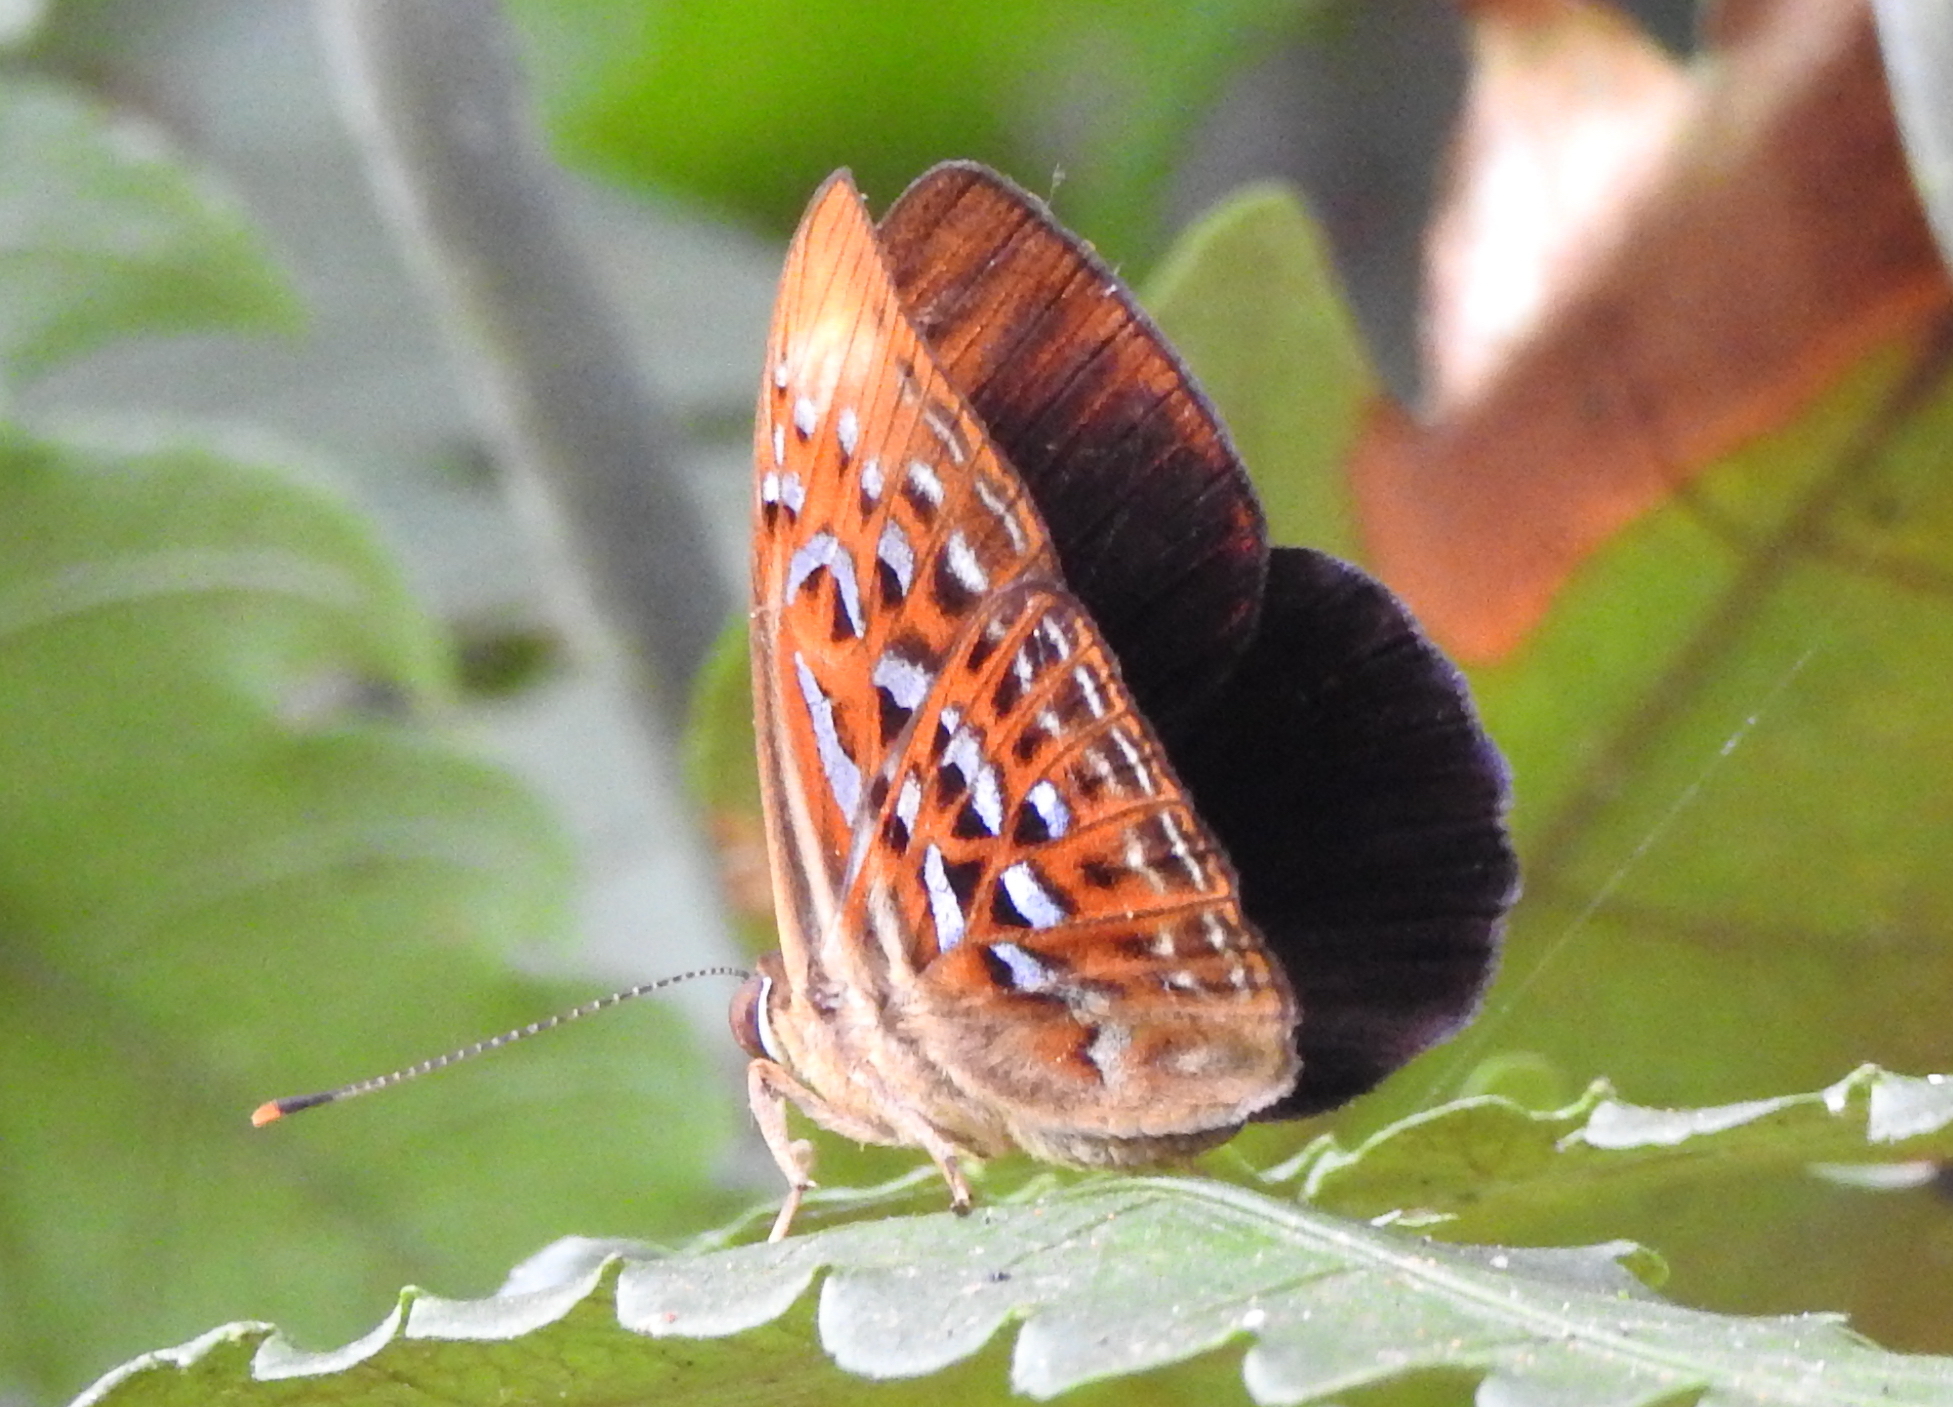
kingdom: Animalia
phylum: Arthropoda
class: Insecta
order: Lepidoptera
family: Erebidae
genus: Dysschema
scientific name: Dysschema
